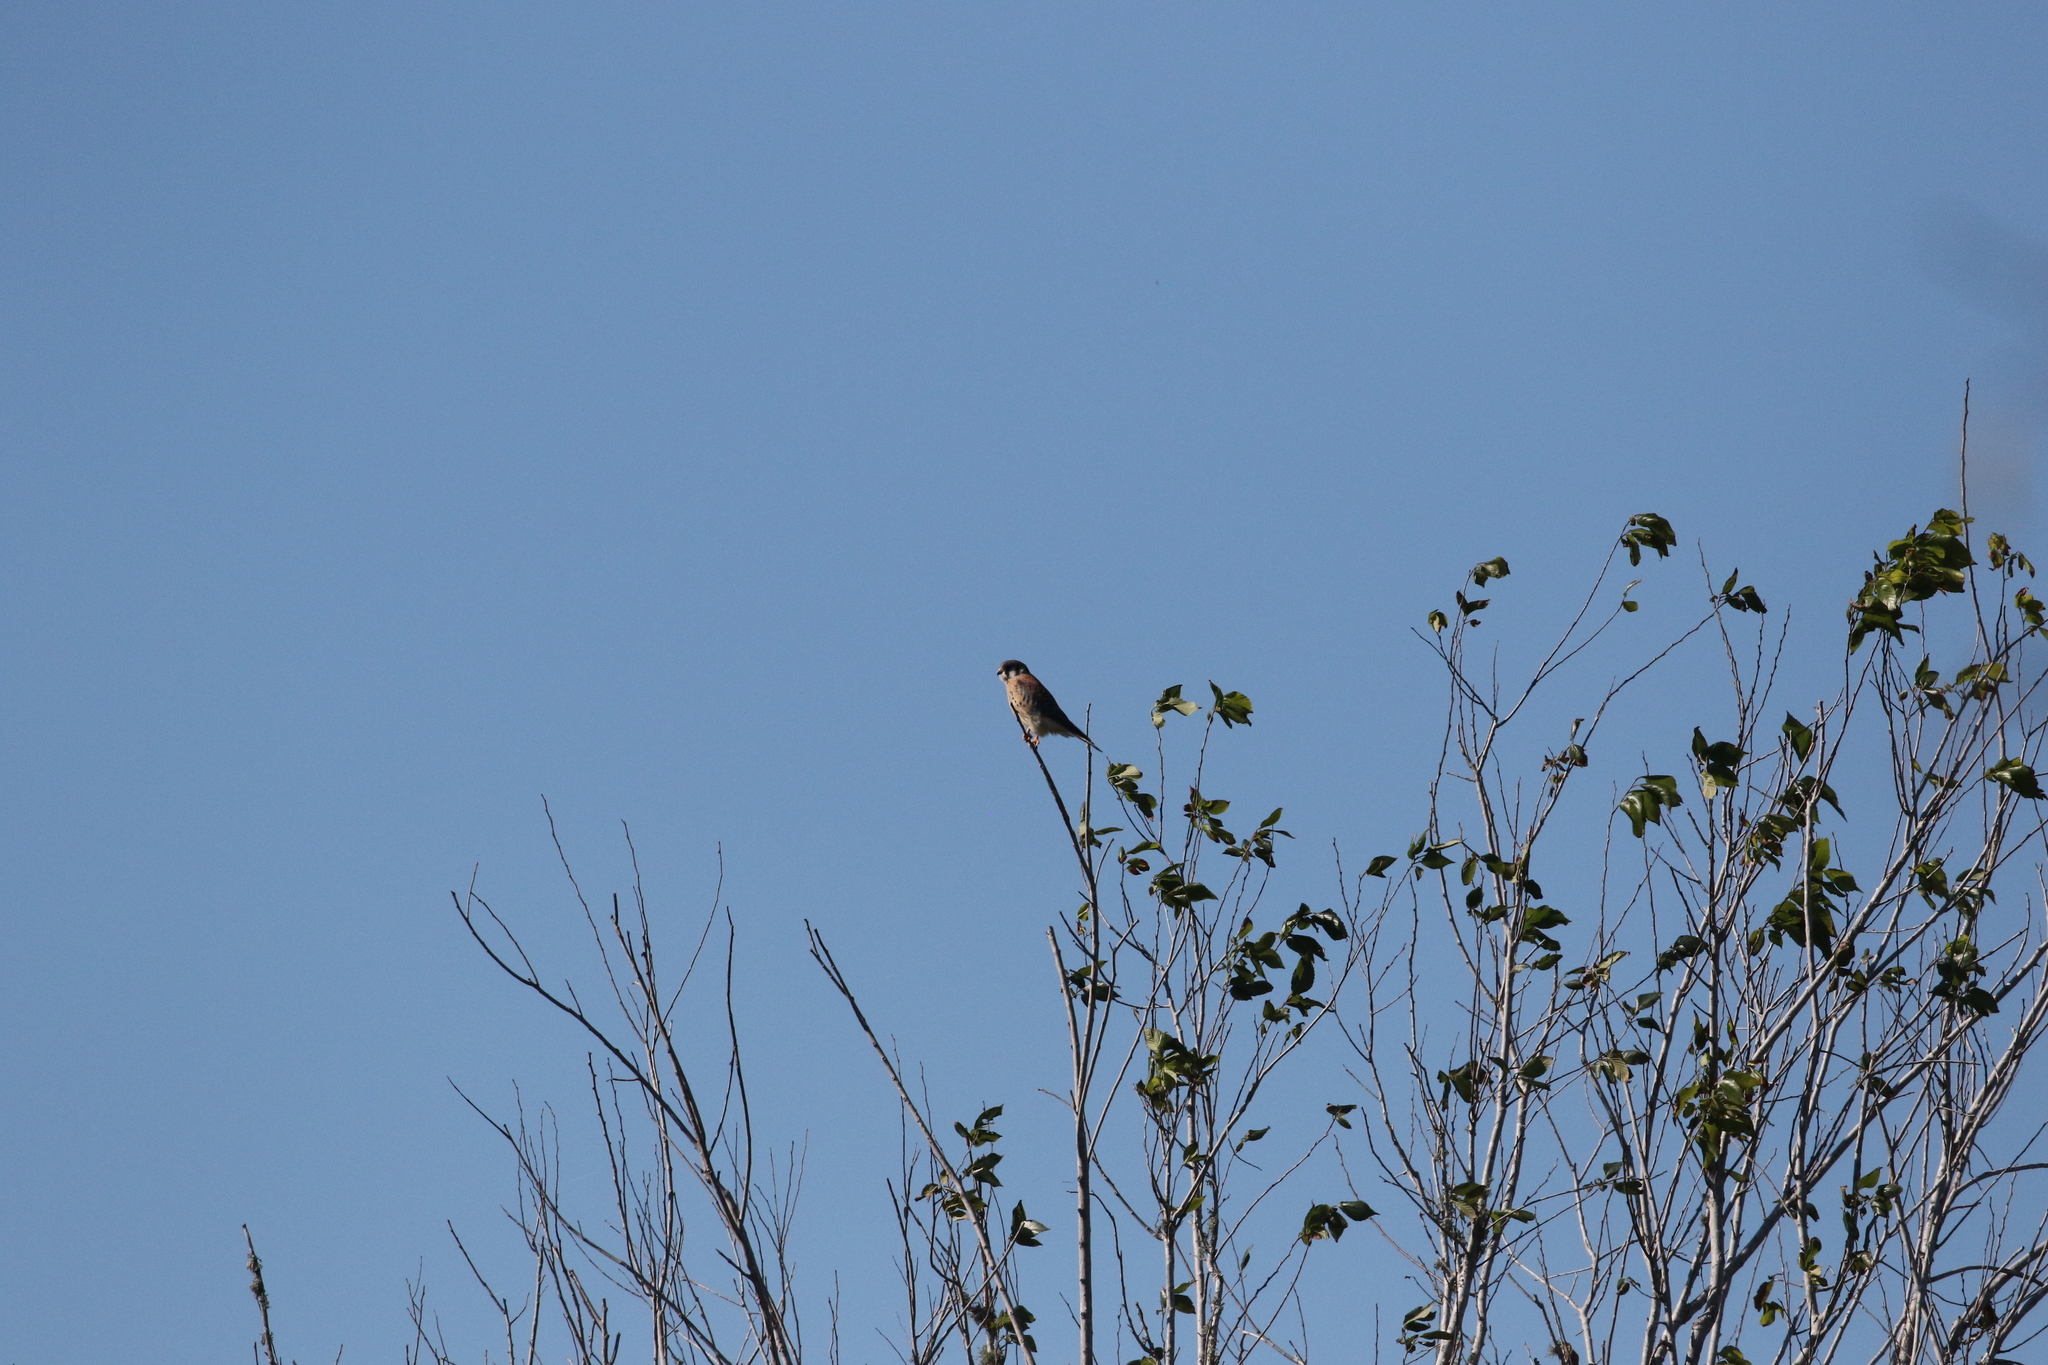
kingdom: Animalia
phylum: Chordata
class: Aves
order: Falconiformes
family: Falconidae
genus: Falco
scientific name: Falco sparverius
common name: American kestrel
